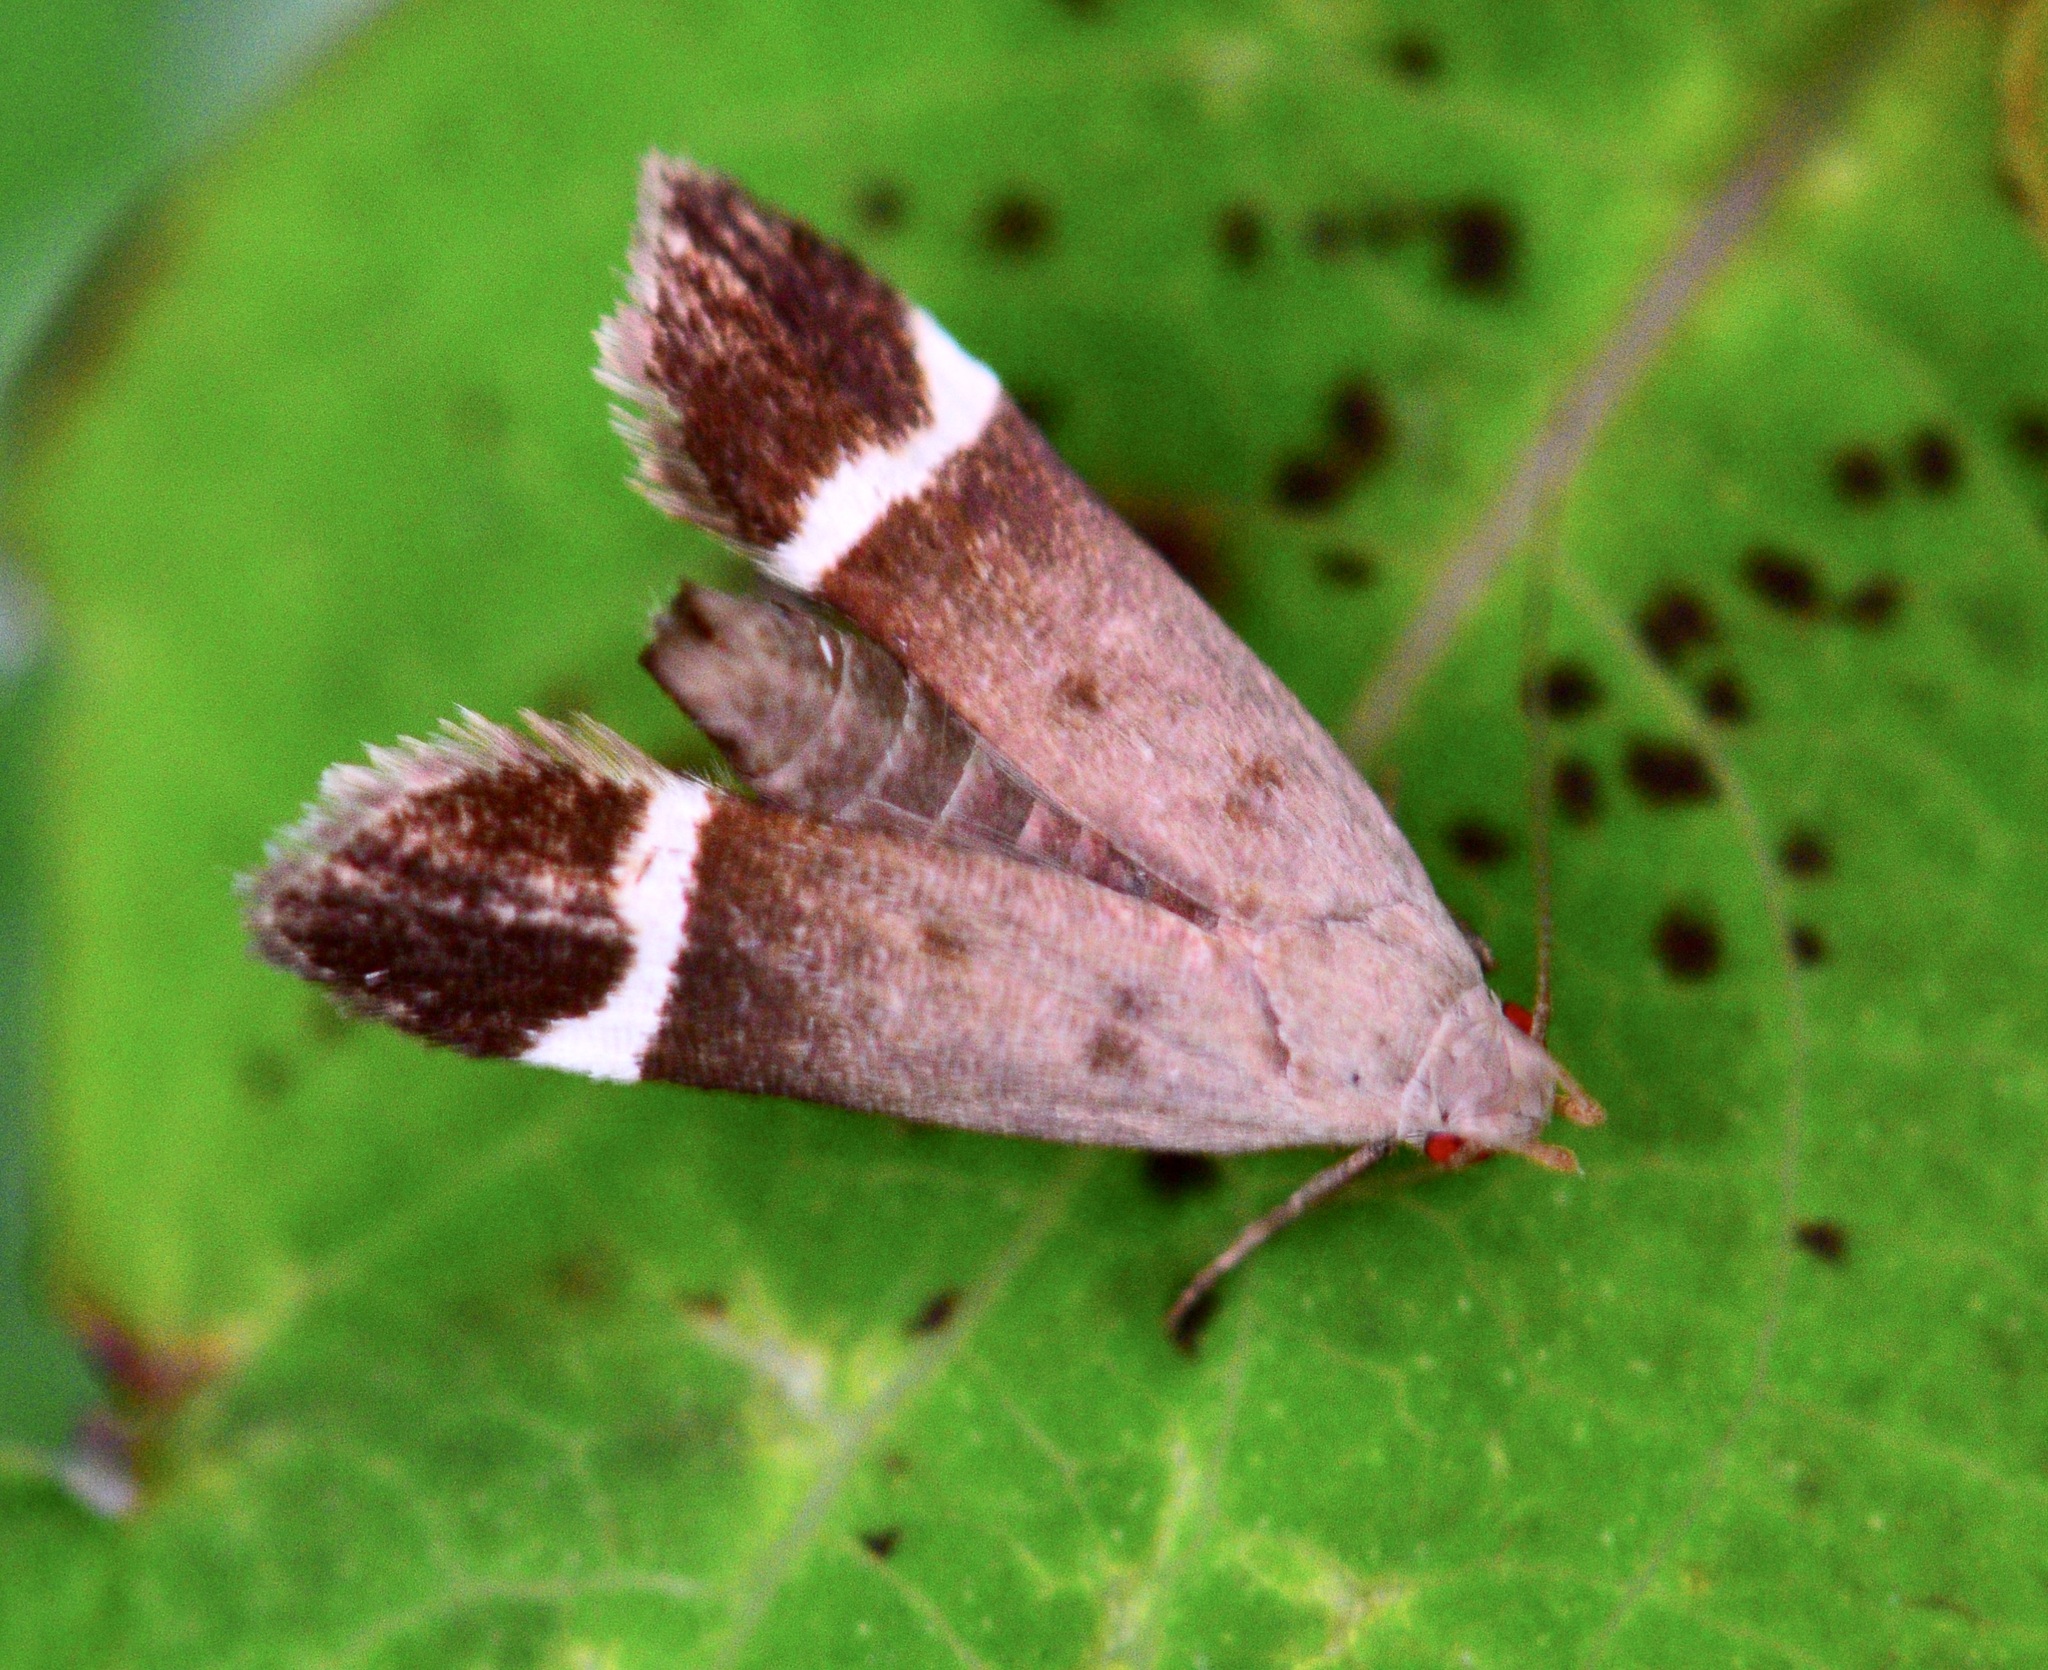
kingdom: Animalia
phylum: Arthropoda
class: Insecta
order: Lepidoptera
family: Gelechiidae
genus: Anacampsis
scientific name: Anacampsis agrimoniella
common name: Agrimony anacampsis moth
